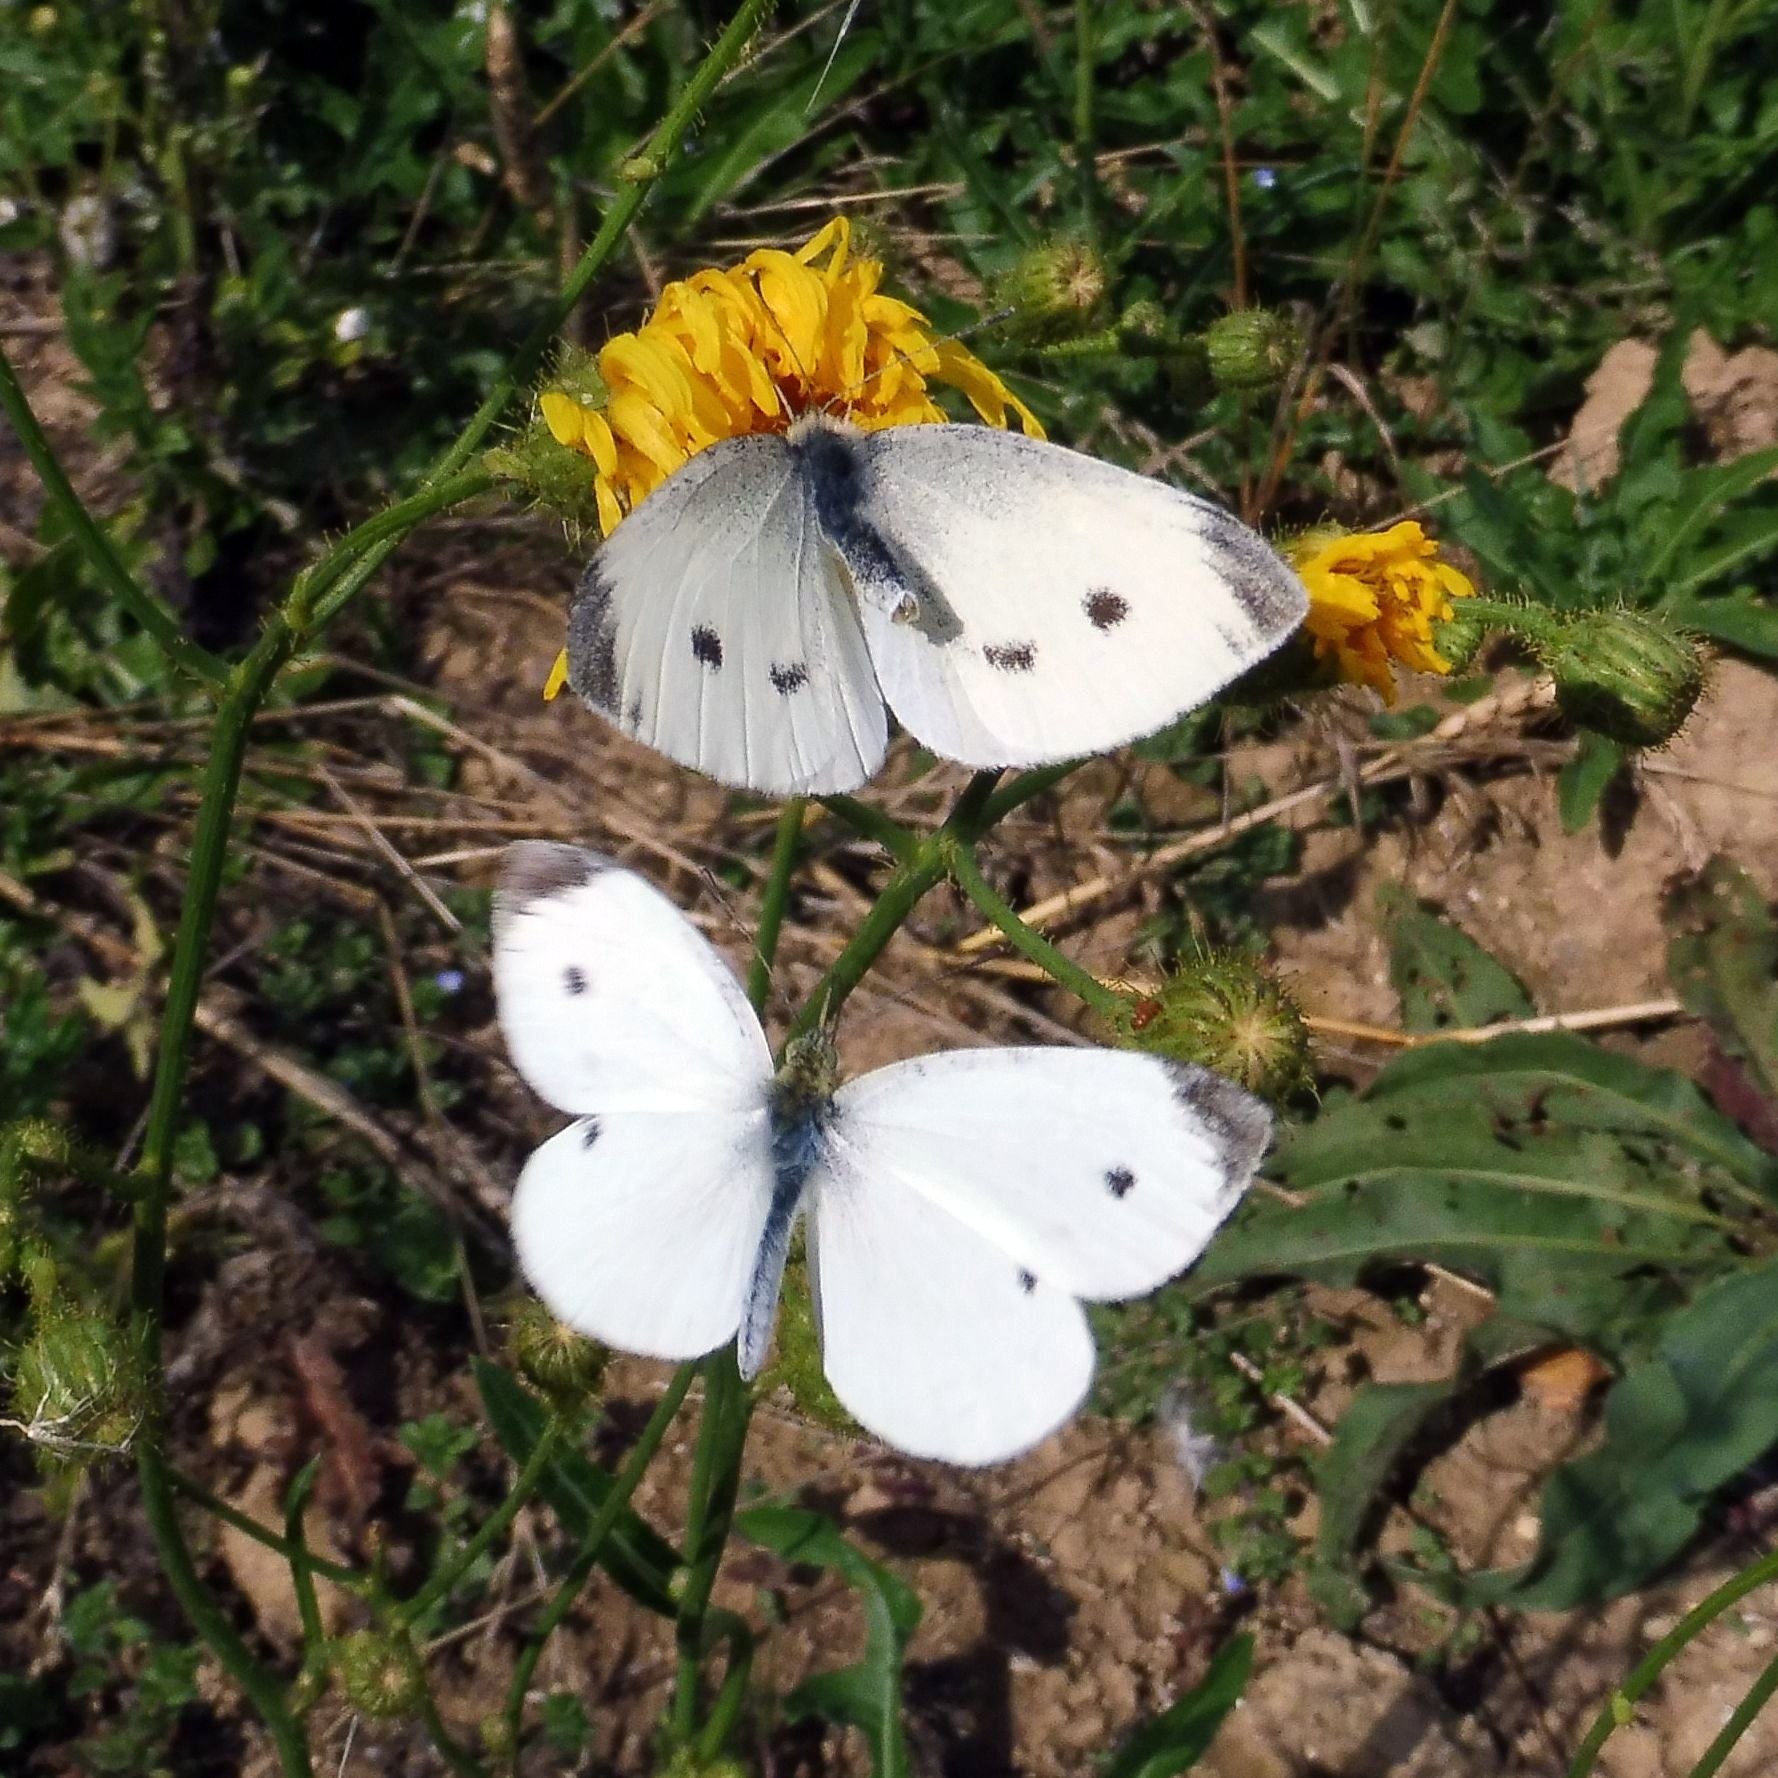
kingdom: Animalia
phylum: Arthropoda
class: Insecta
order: Lepidoptera
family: Pieridae
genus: Pieris
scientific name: Pieris rapae
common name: Small white
